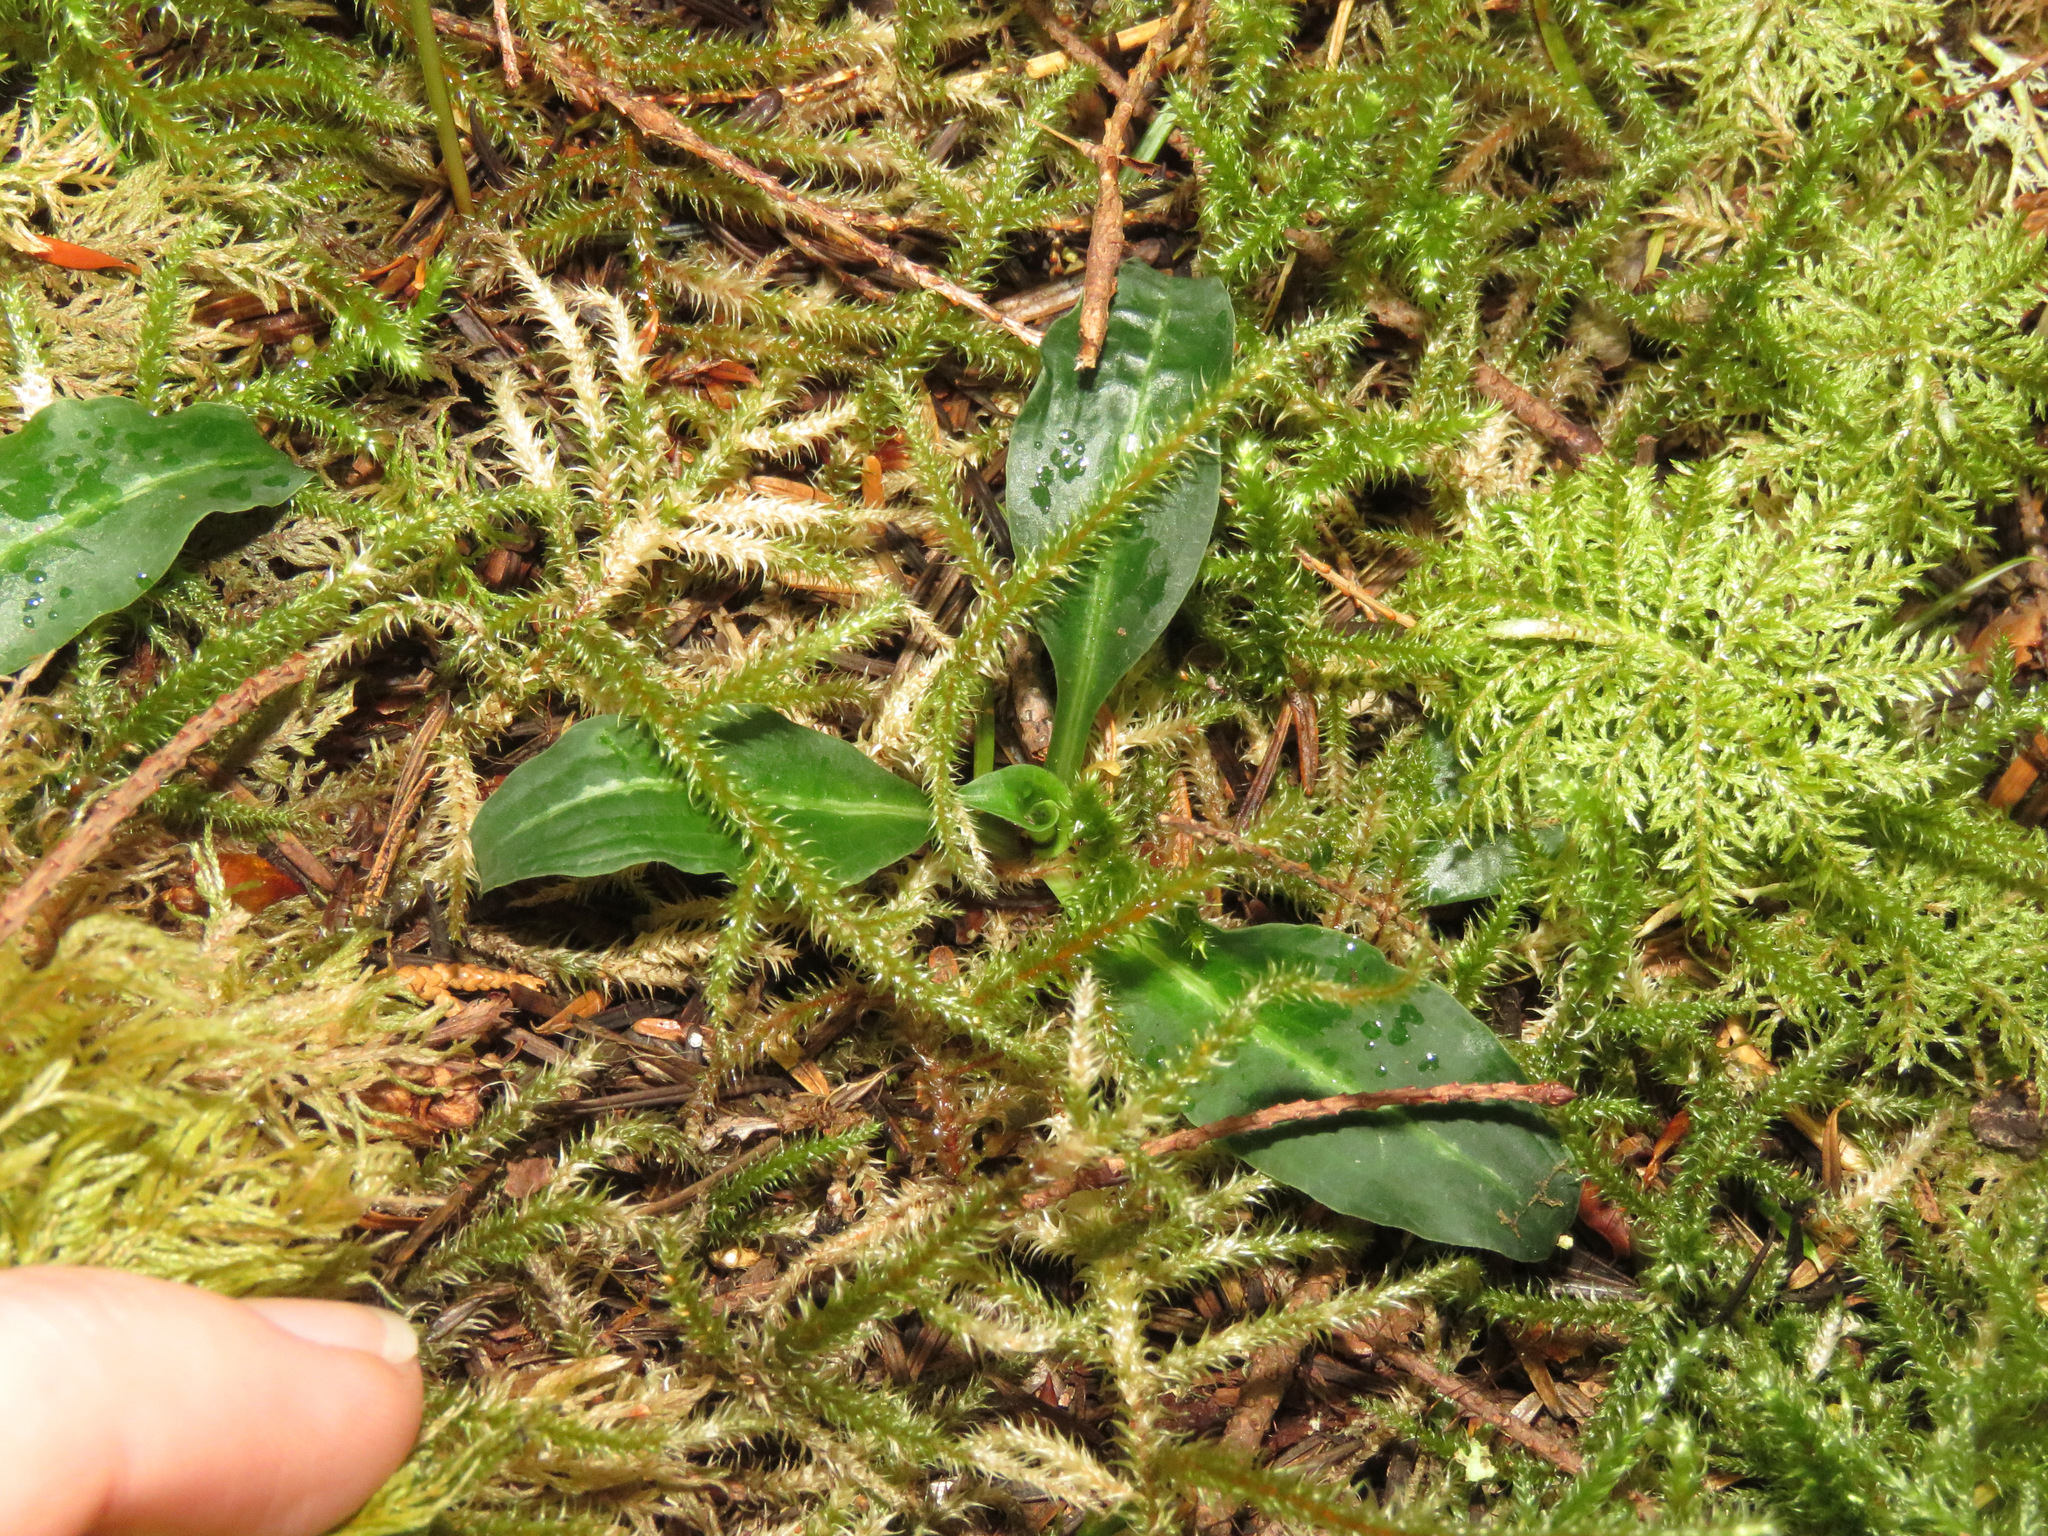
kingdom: Plantae
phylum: Tracheophyta
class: Liliopsida
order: Asparagales
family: Orchidaceae
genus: Goodyera
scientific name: Goodyera oblongifolia
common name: Giant rattlesnake-plantain
